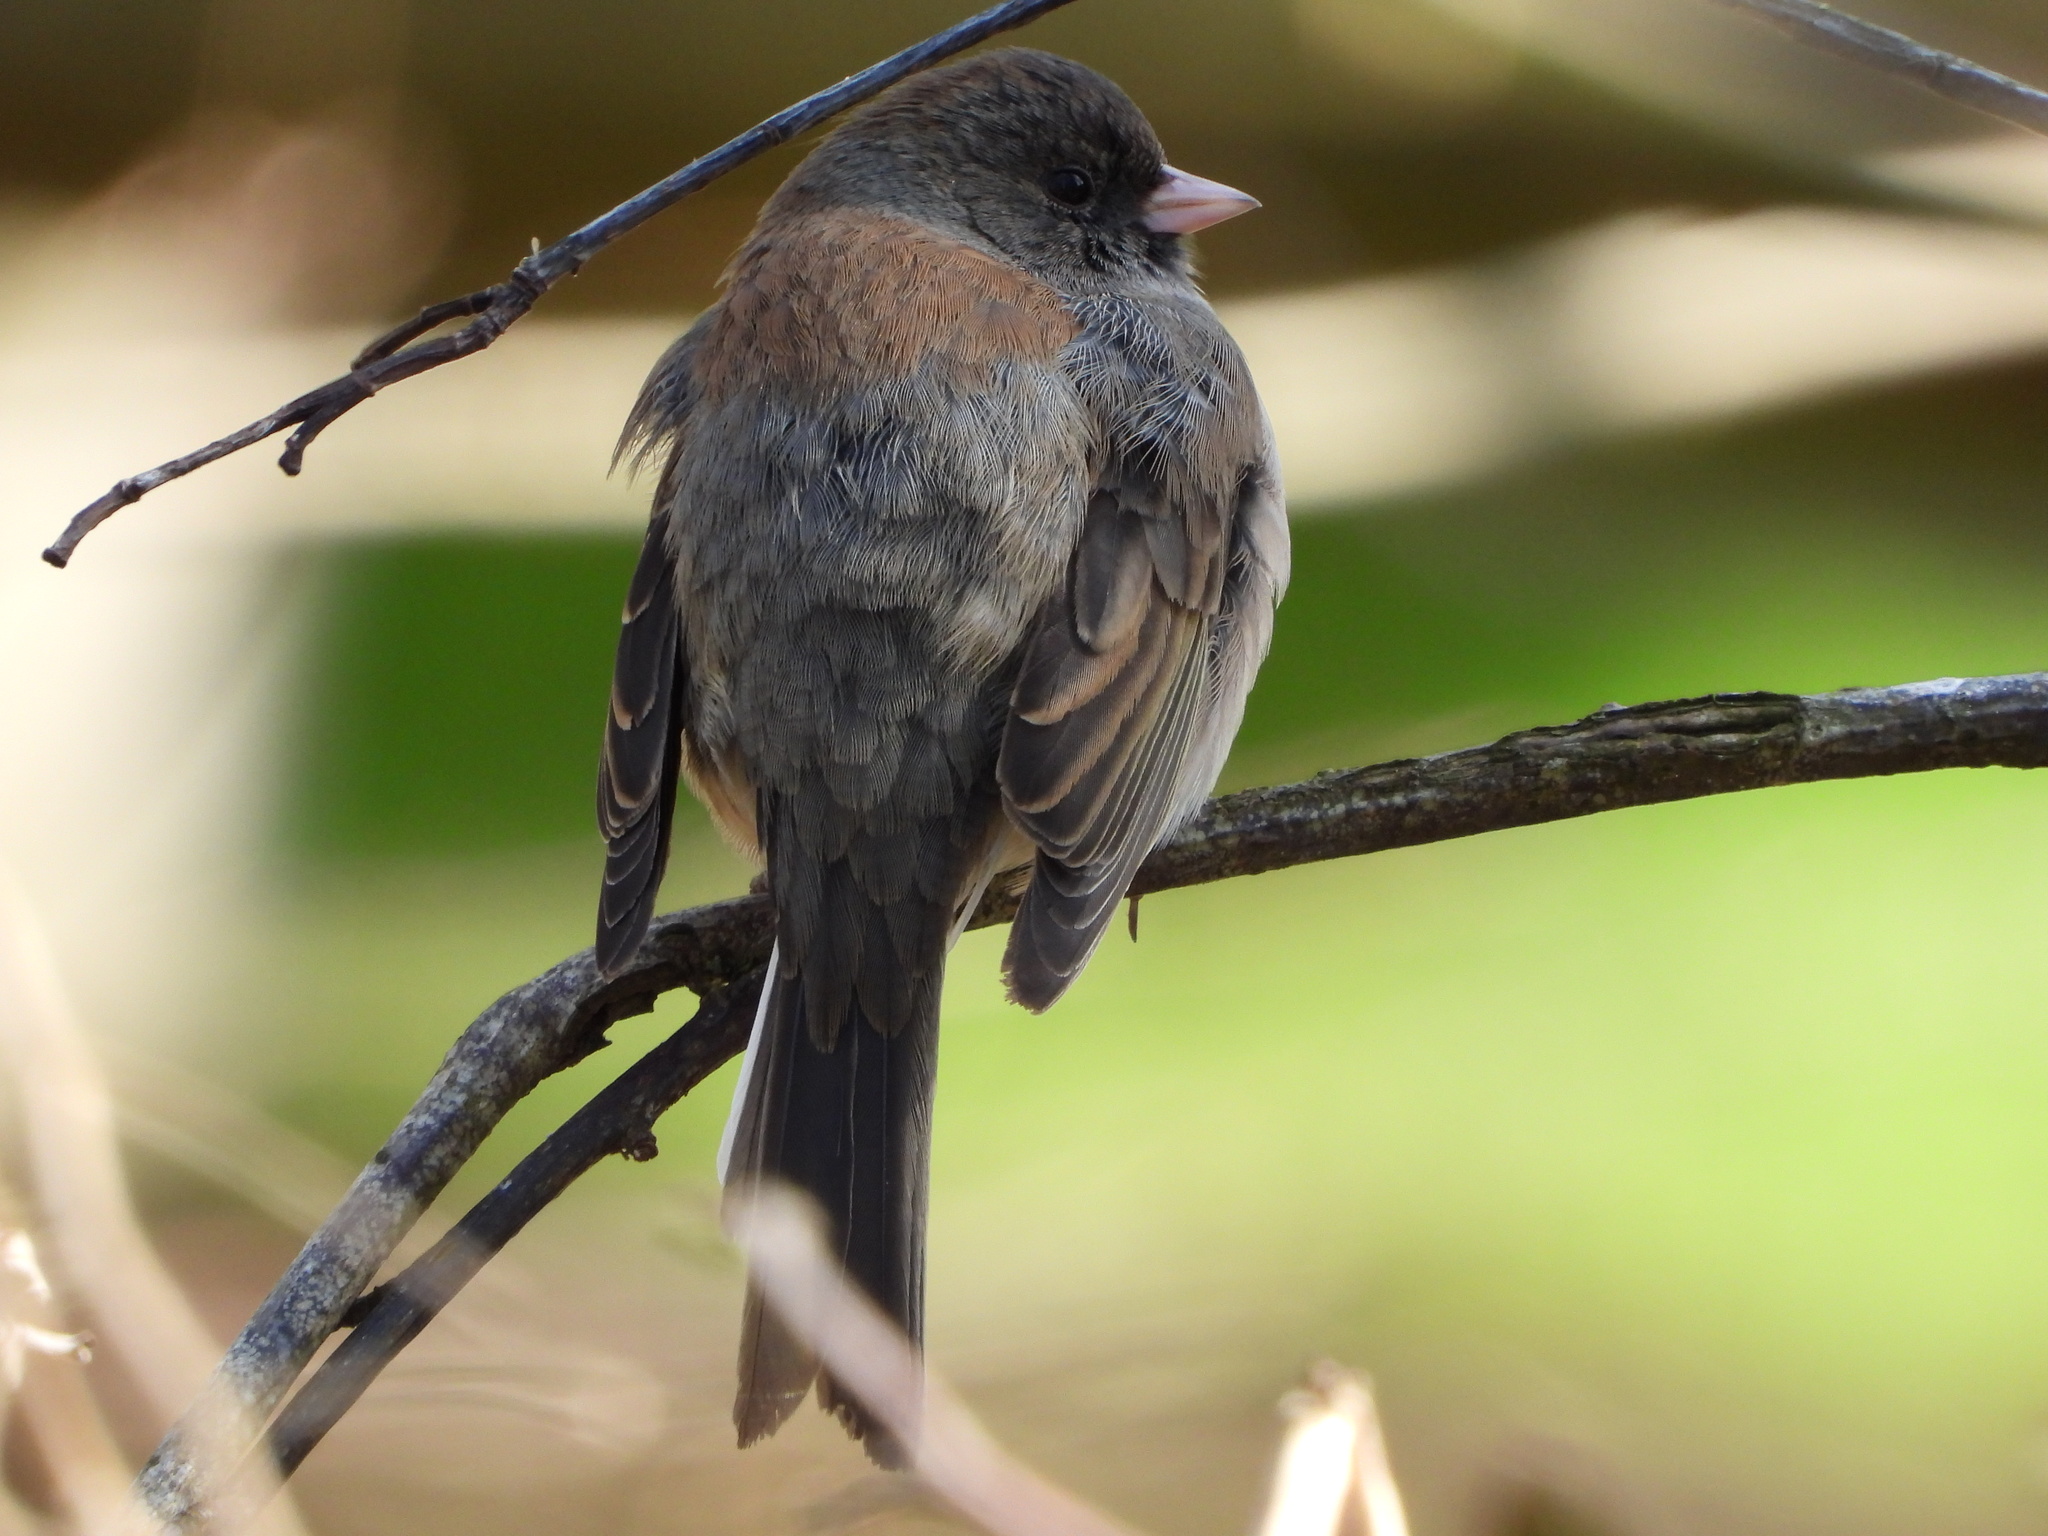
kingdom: Animalia
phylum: Chordata
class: Aves
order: Passeriformes
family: Passerellidae
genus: Junco
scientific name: Junco hyemalis
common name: Dark-eyed junco
